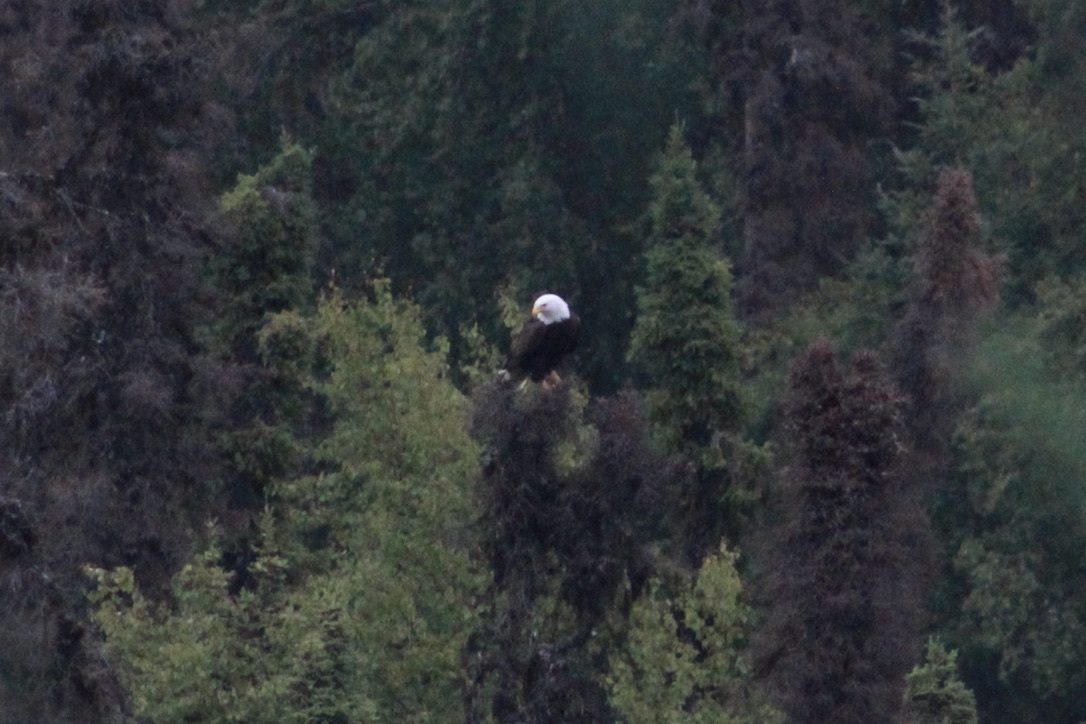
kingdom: Animalia
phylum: Chordata
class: Aves
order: Accipitriformes
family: Accipitridae
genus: Haliaeetus
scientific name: Haliaeetus leucocephalus
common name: Bald eagle
